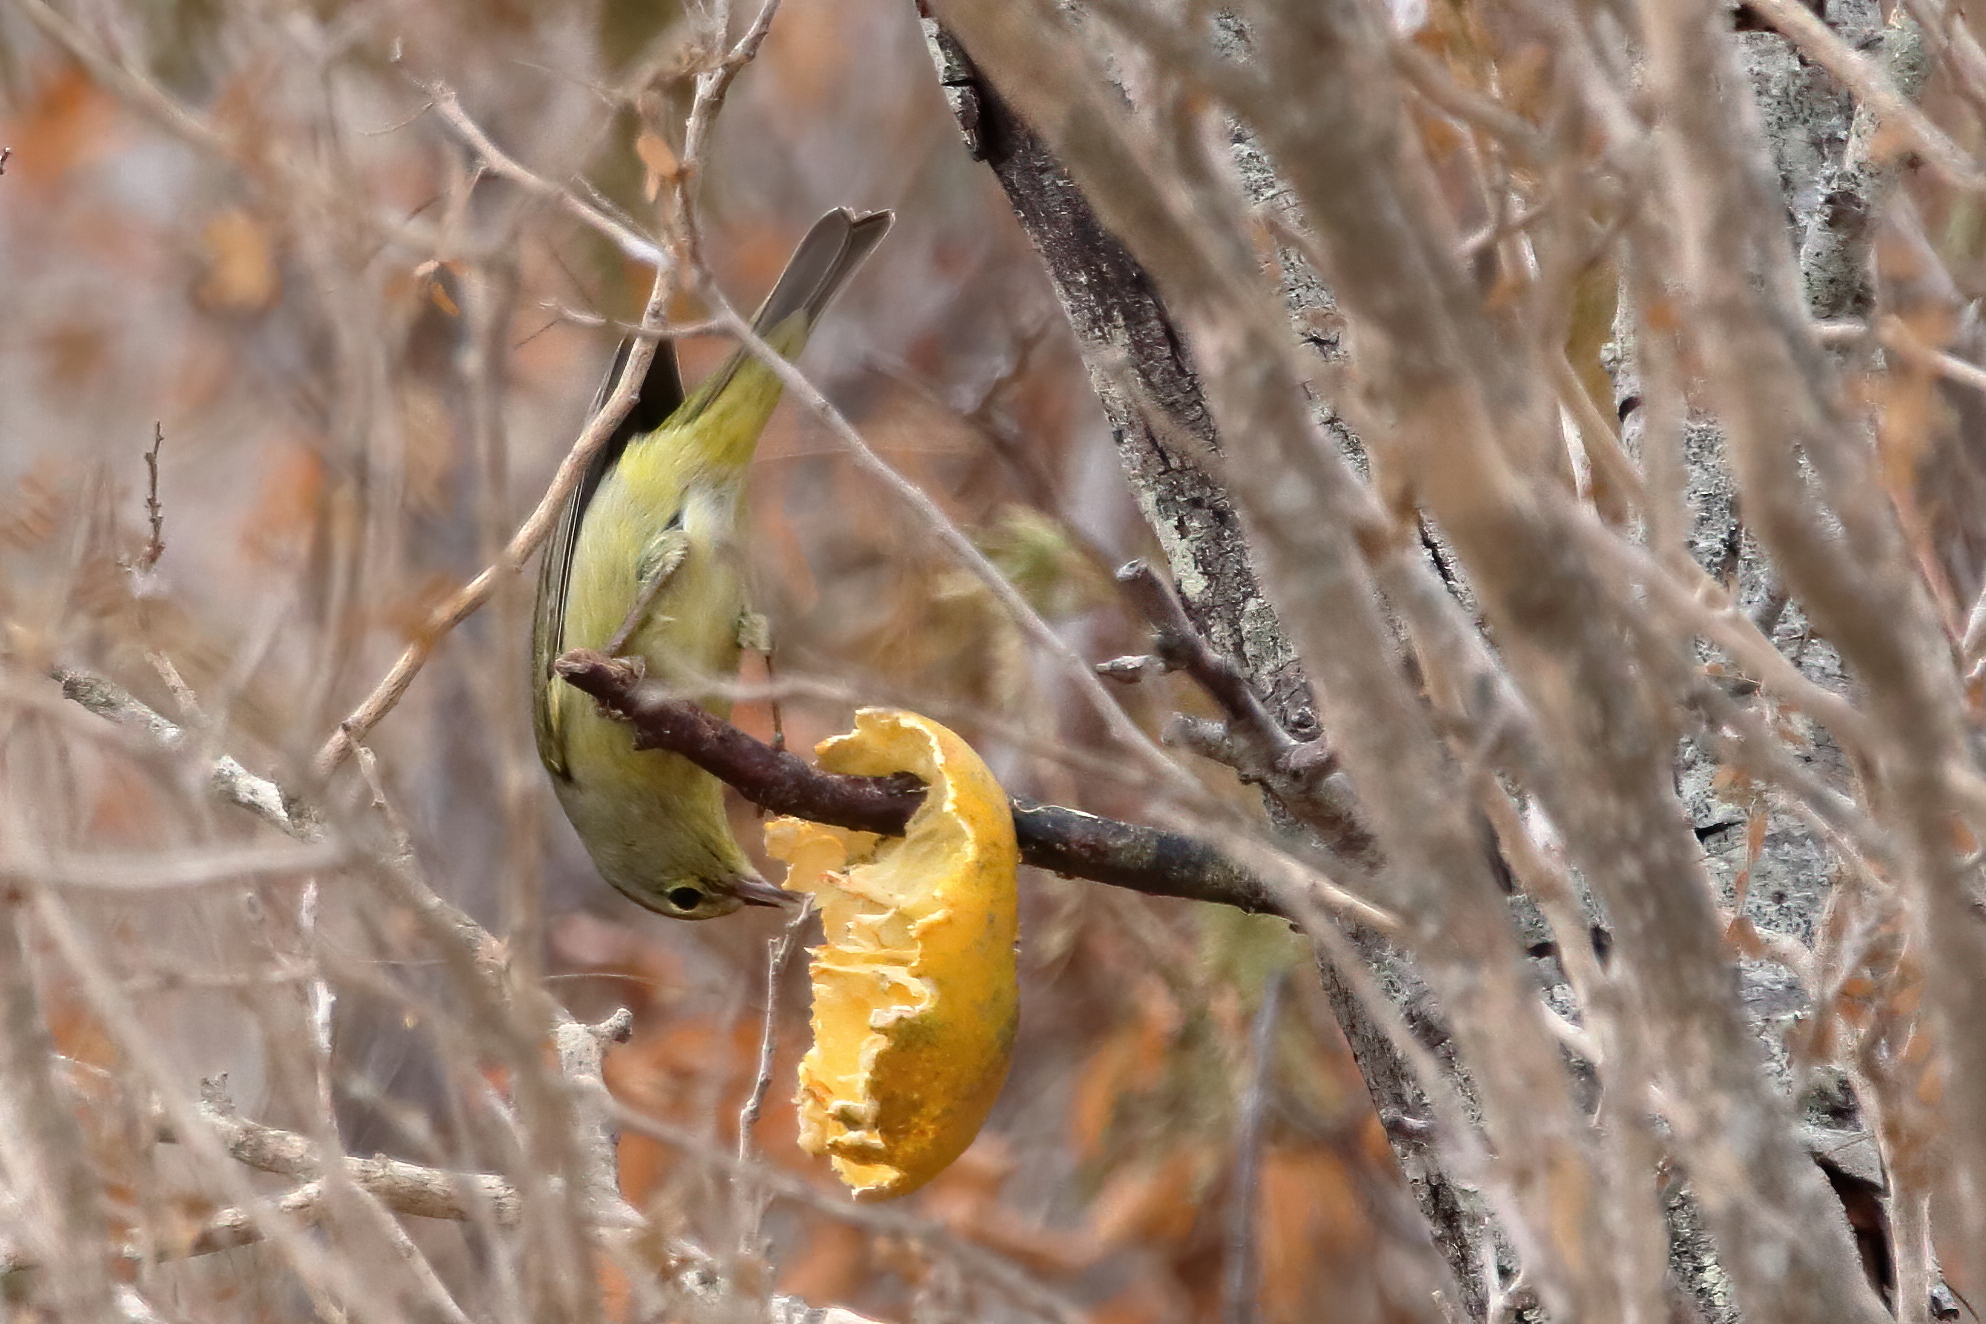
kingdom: Animalia
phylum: Chordata
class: Aves
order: Passeriformes
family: Parulidae
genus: Leiothlypis
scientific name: Leiothlypis celata
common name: Orange-crowned warbler
